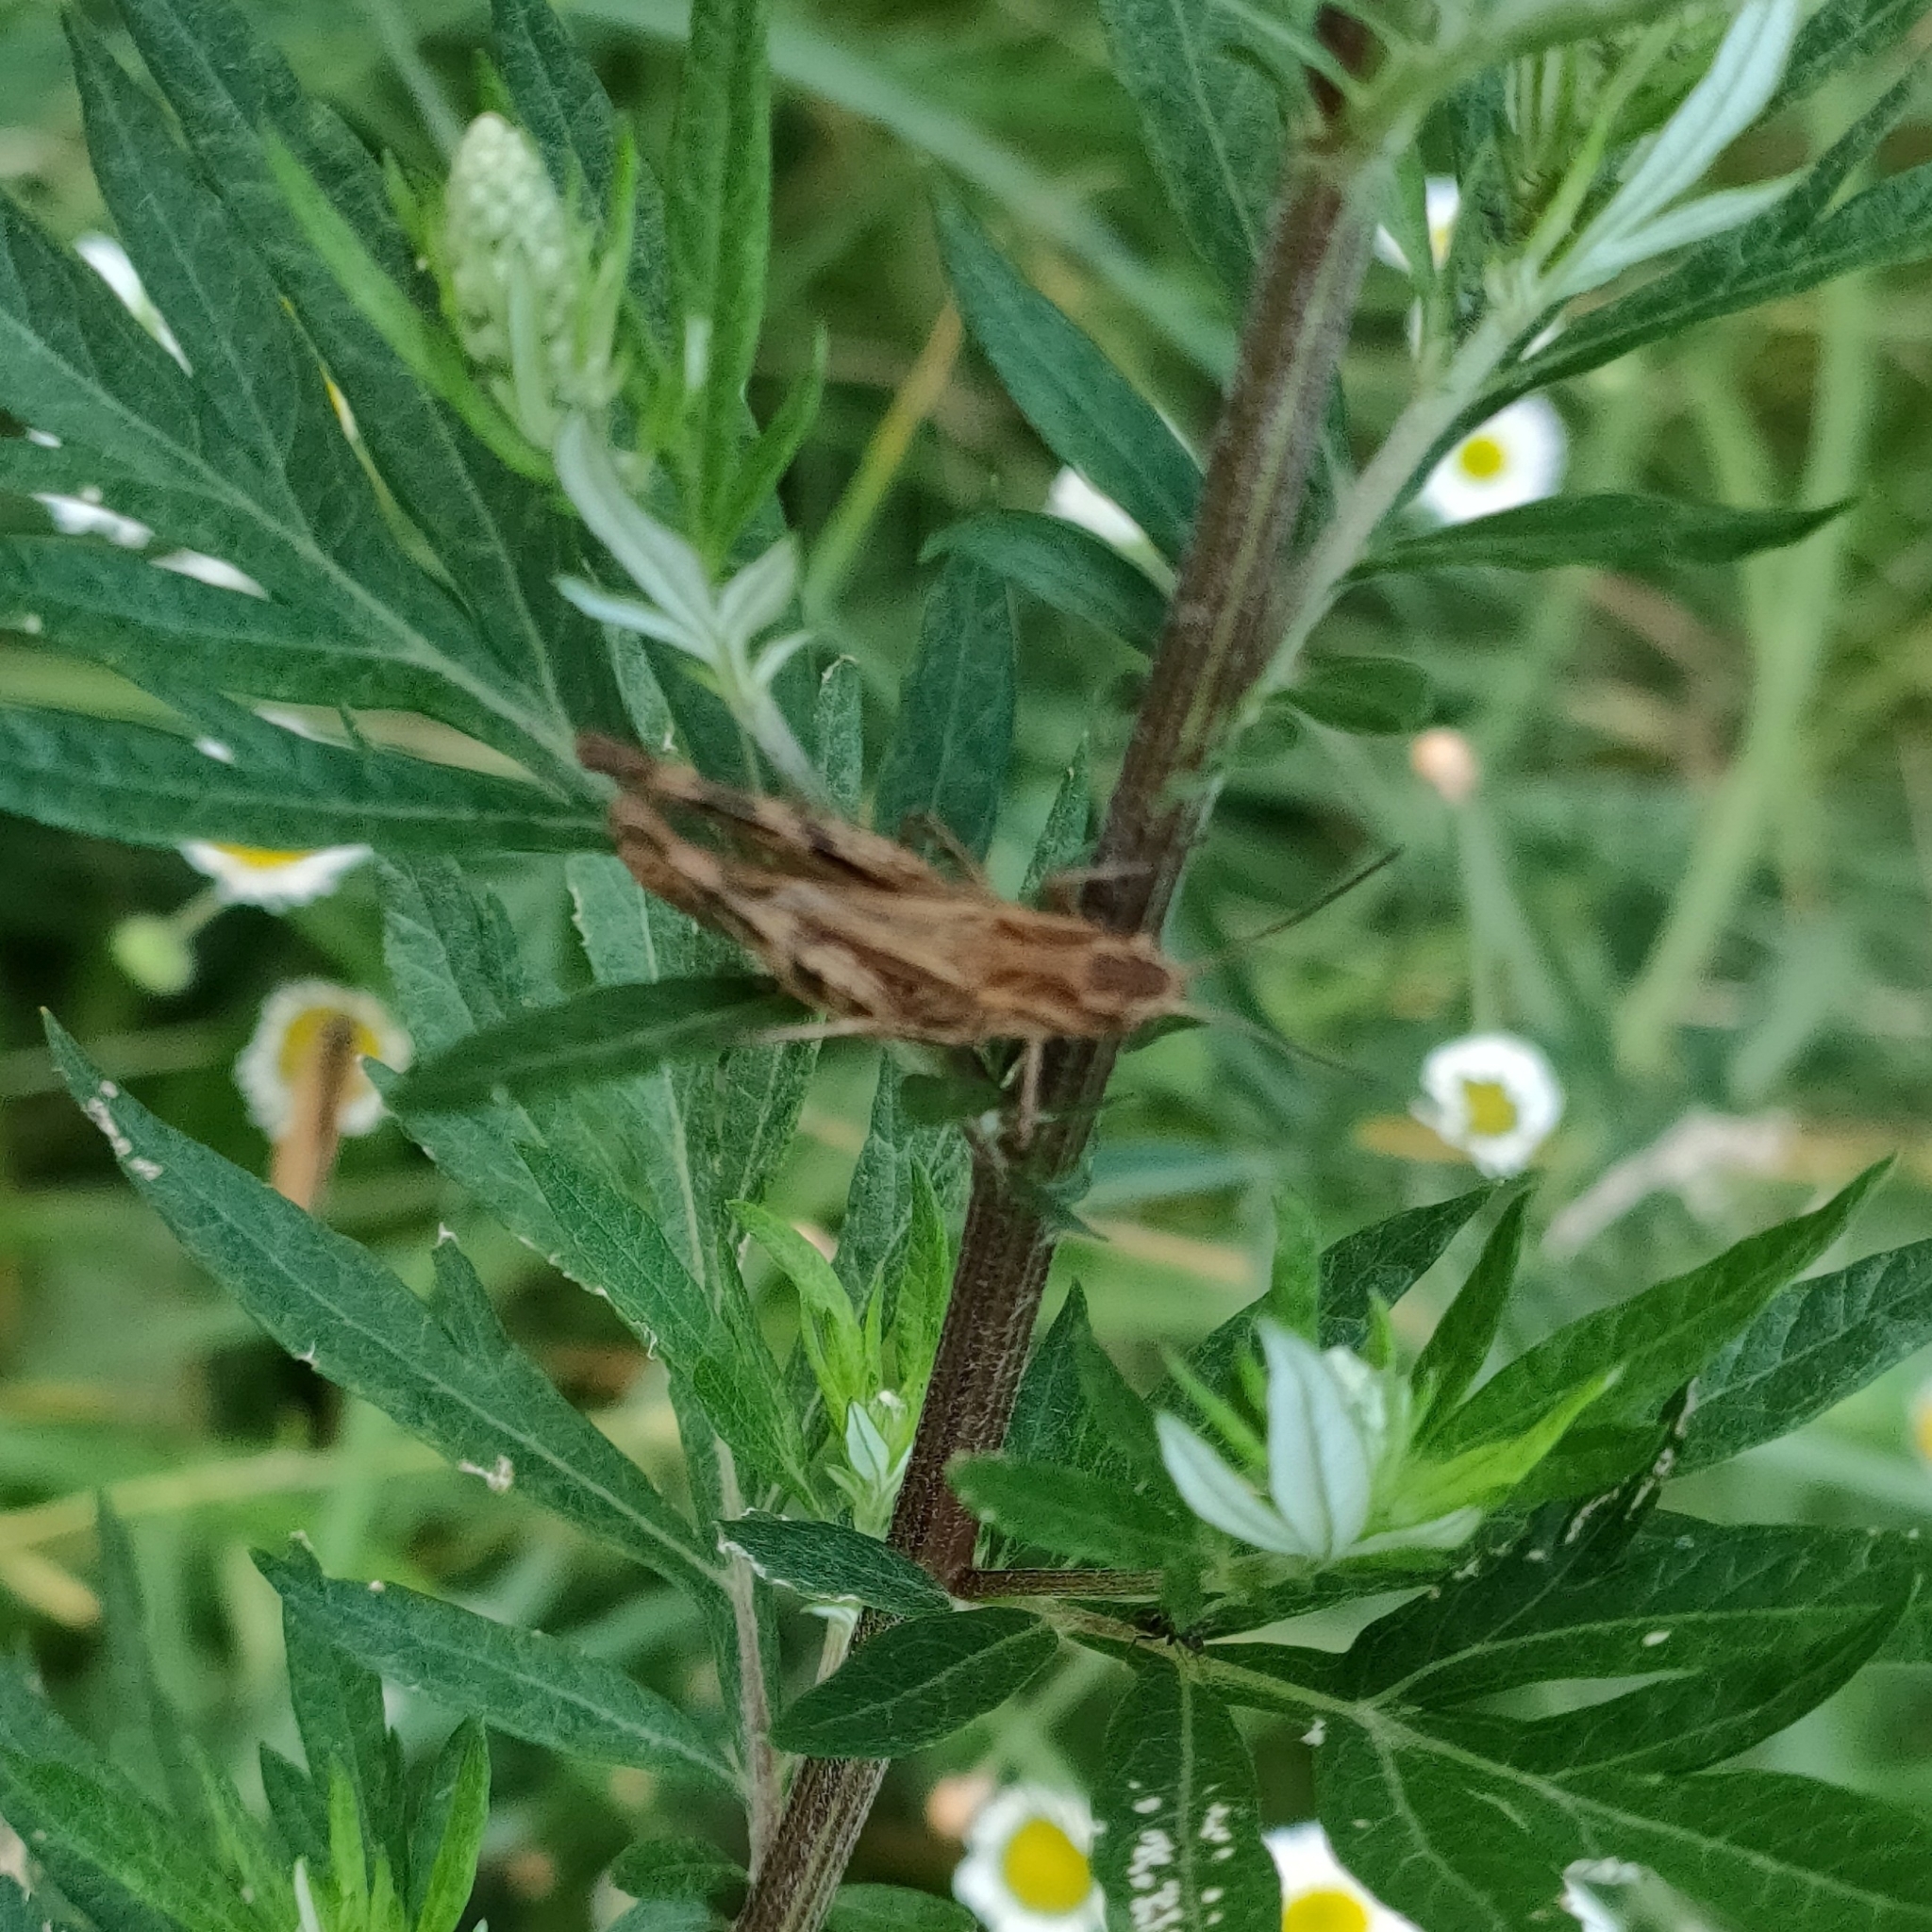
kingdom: Animalia
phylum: Arthropoda
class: Insecta
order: Orthoptera
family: Acrididae
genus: Chorthippus
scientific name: Chorthippus macrocerus
